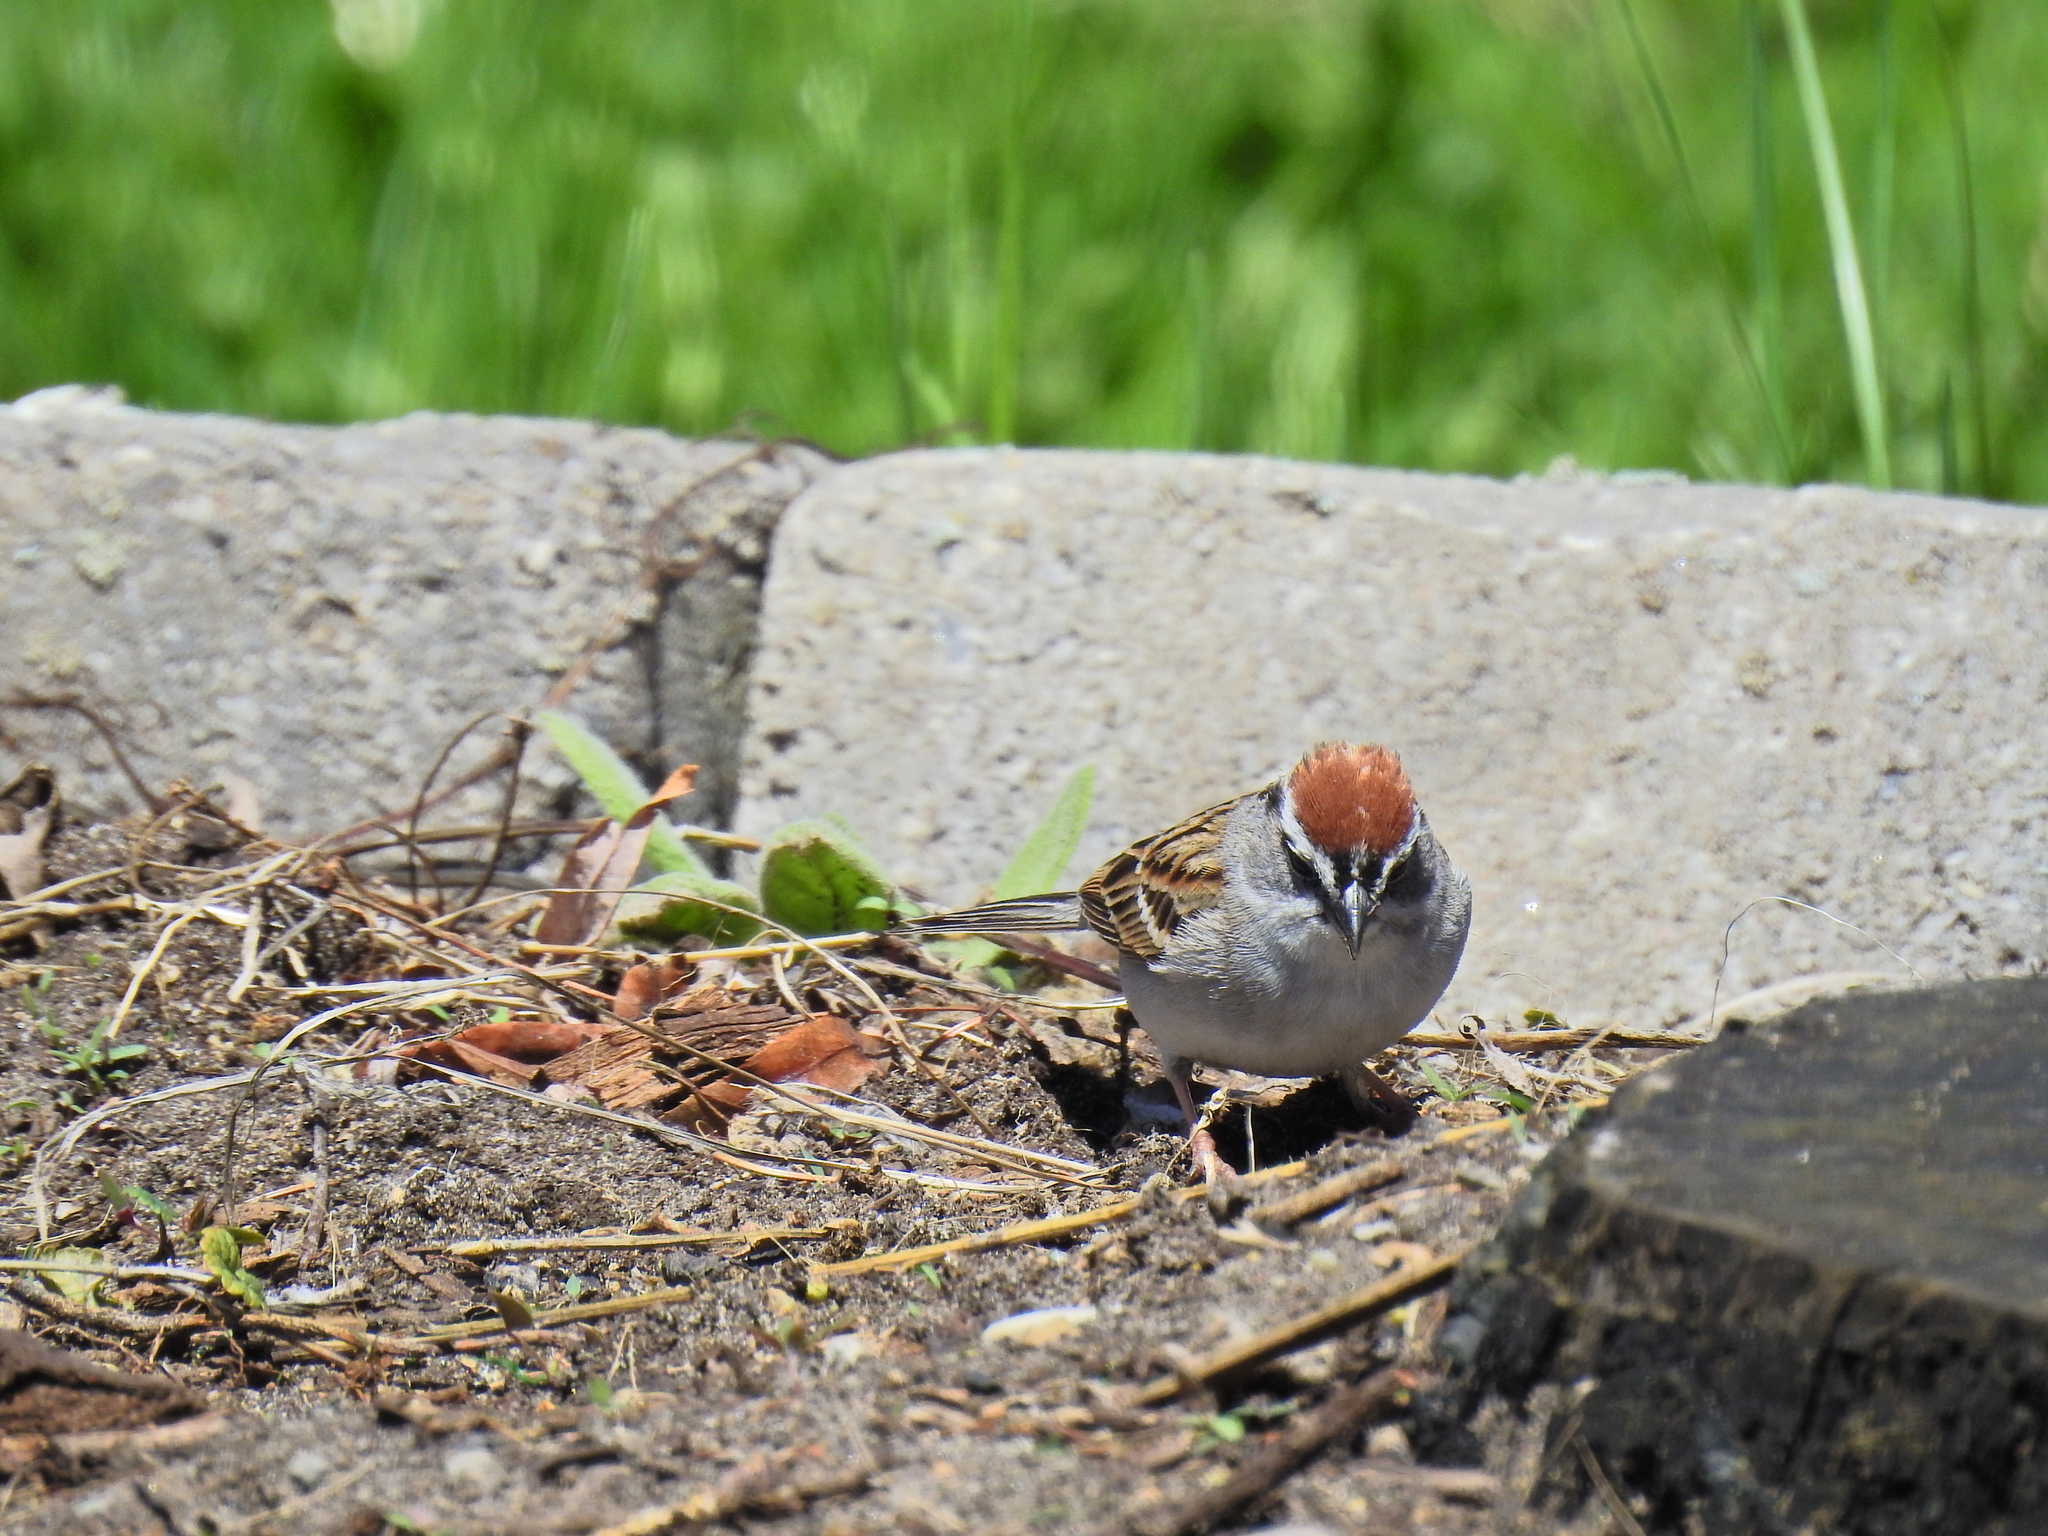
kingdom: Animalia
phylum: Chordata
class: Aves
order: Passeriformes
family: Passerellidae
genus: Spizella
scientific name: Spizella passerina
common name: Chipping sparrow
